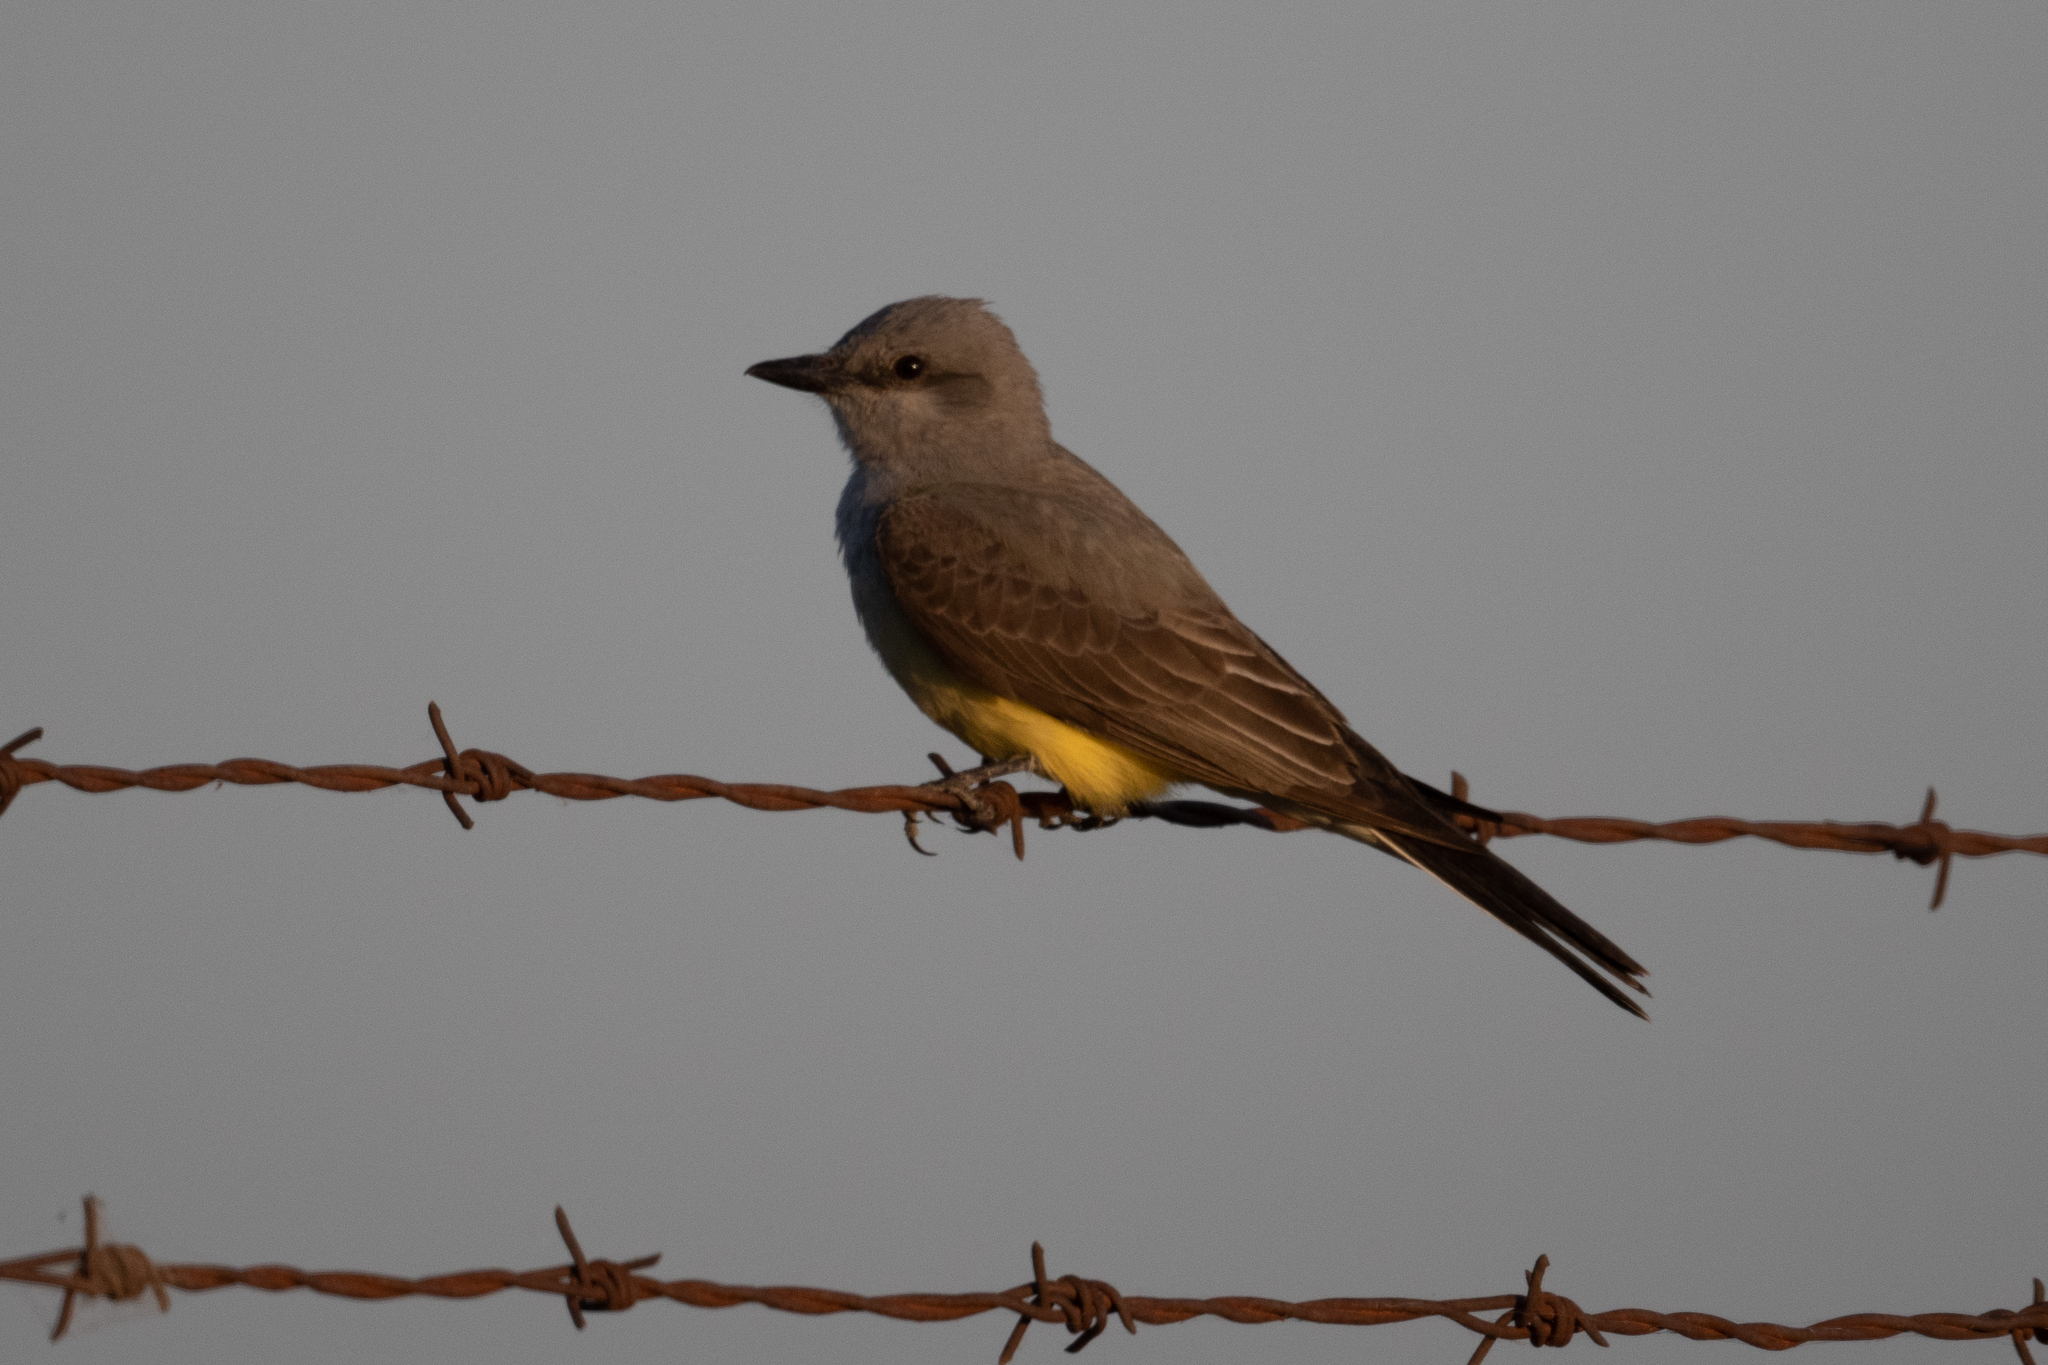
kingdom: Animalia
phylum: Chordata
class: Aves
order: Passeriformes
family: Tyrannidae
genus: Tyrannus
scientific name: Tyrannus verticalis
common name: Western kingbird
